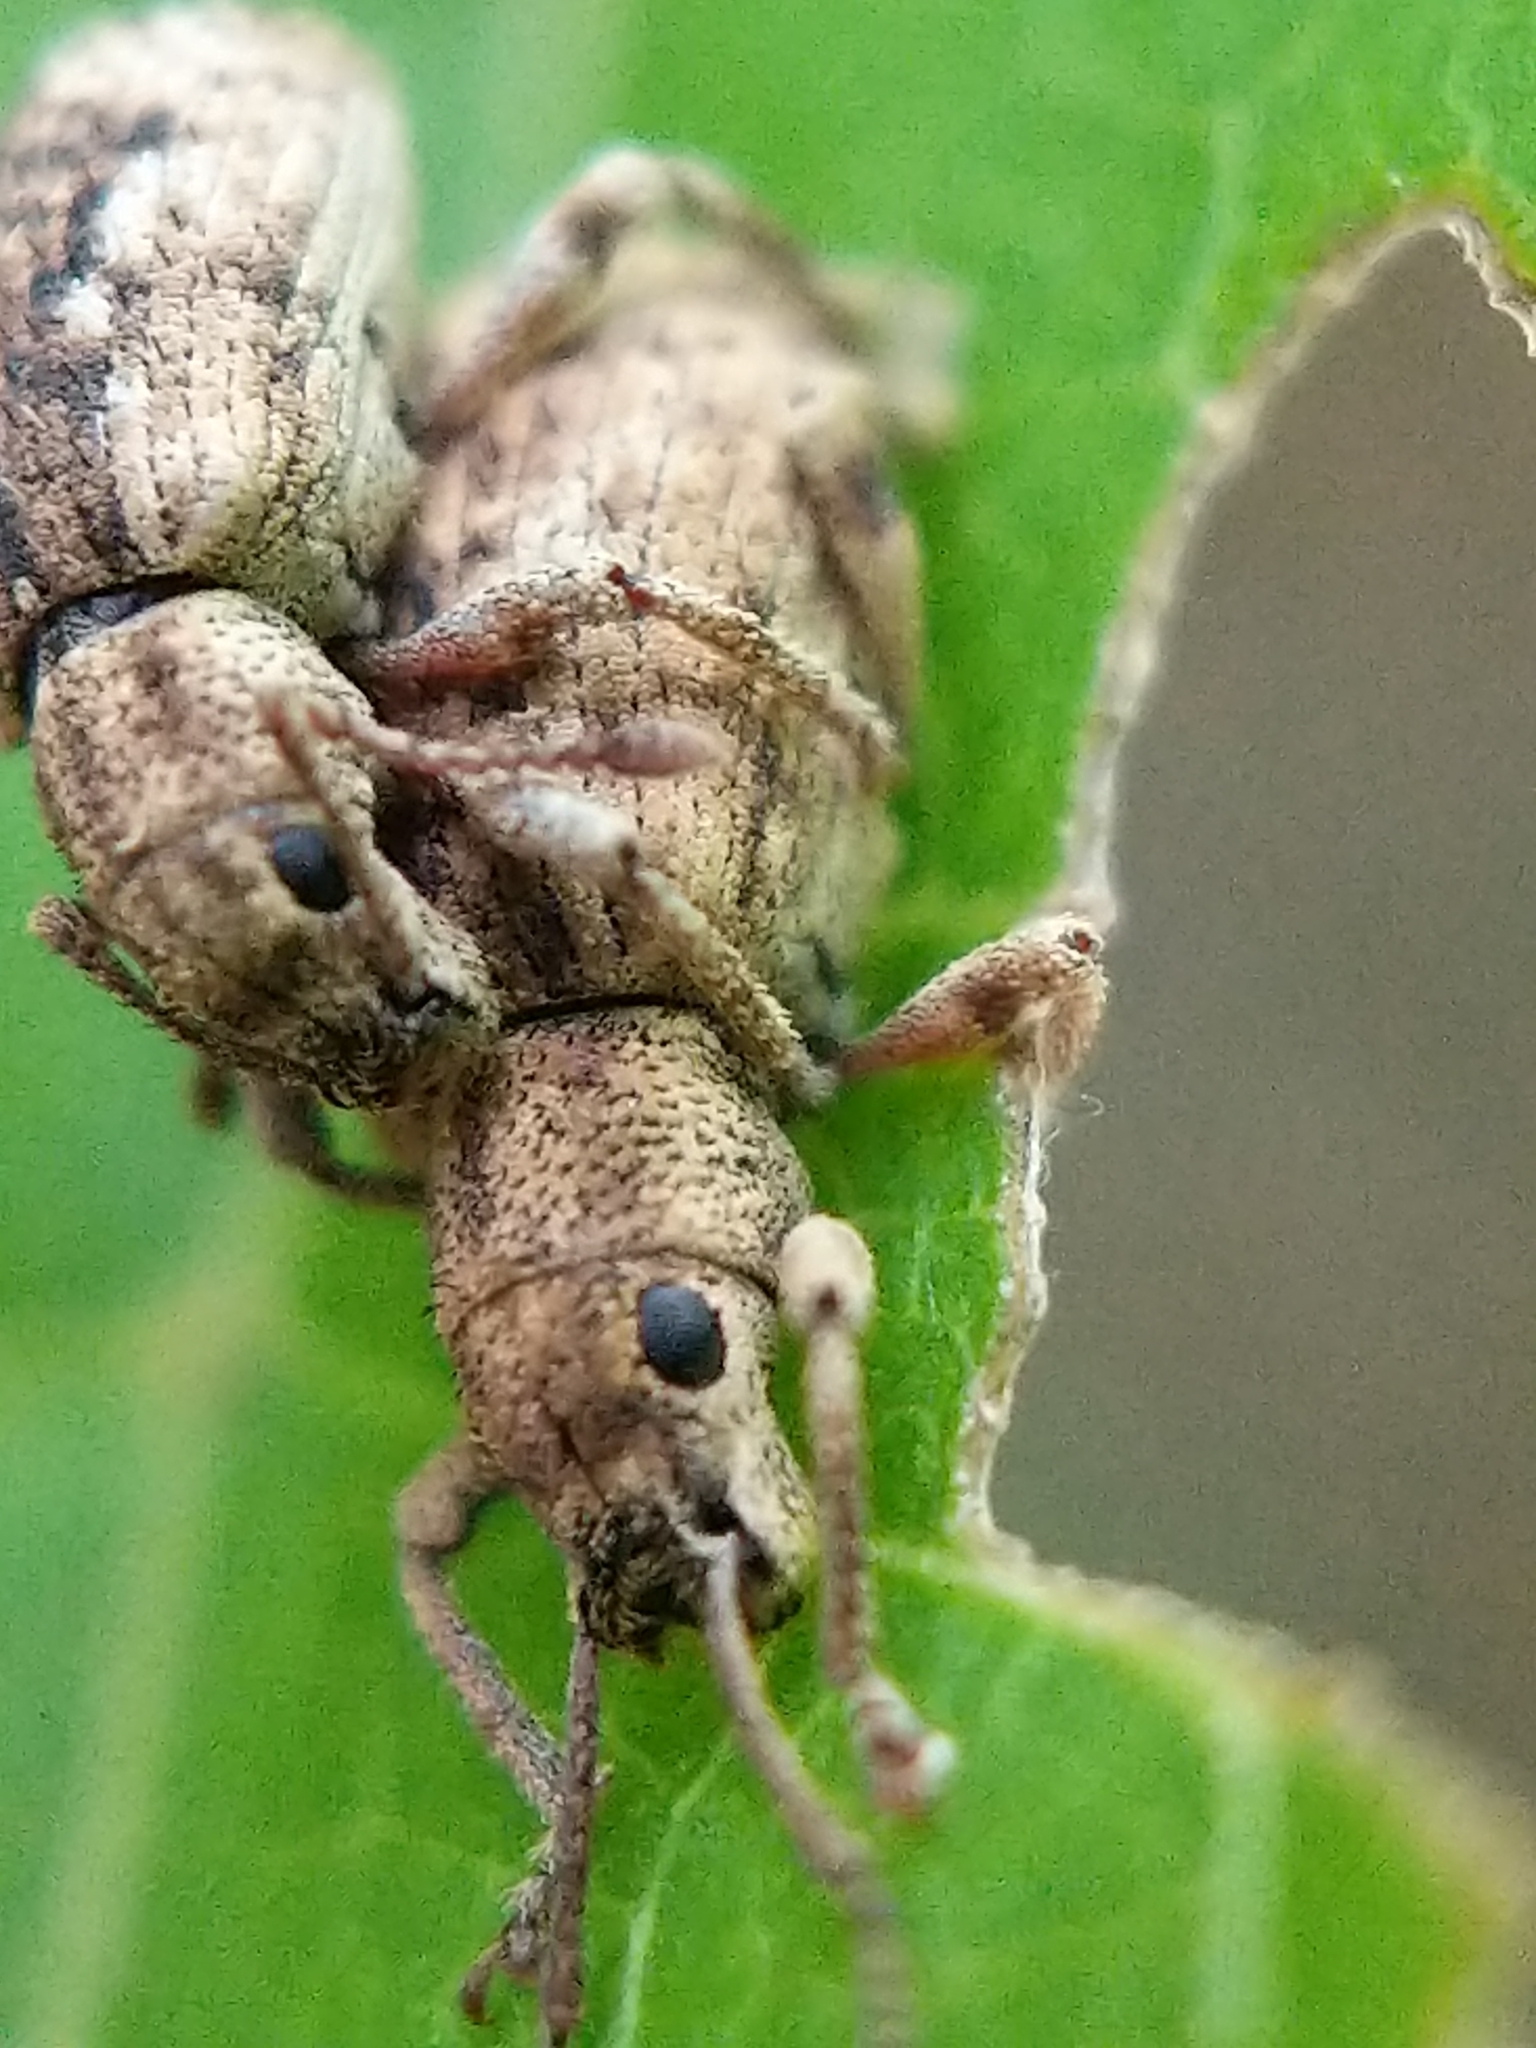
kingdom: Animalia
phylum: Arthropoda
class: Insecta
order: Coleoptera
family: Curculionidae
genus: Pseudoedophrys
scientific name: Pseudoedophrys hilleri
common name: Weevil
